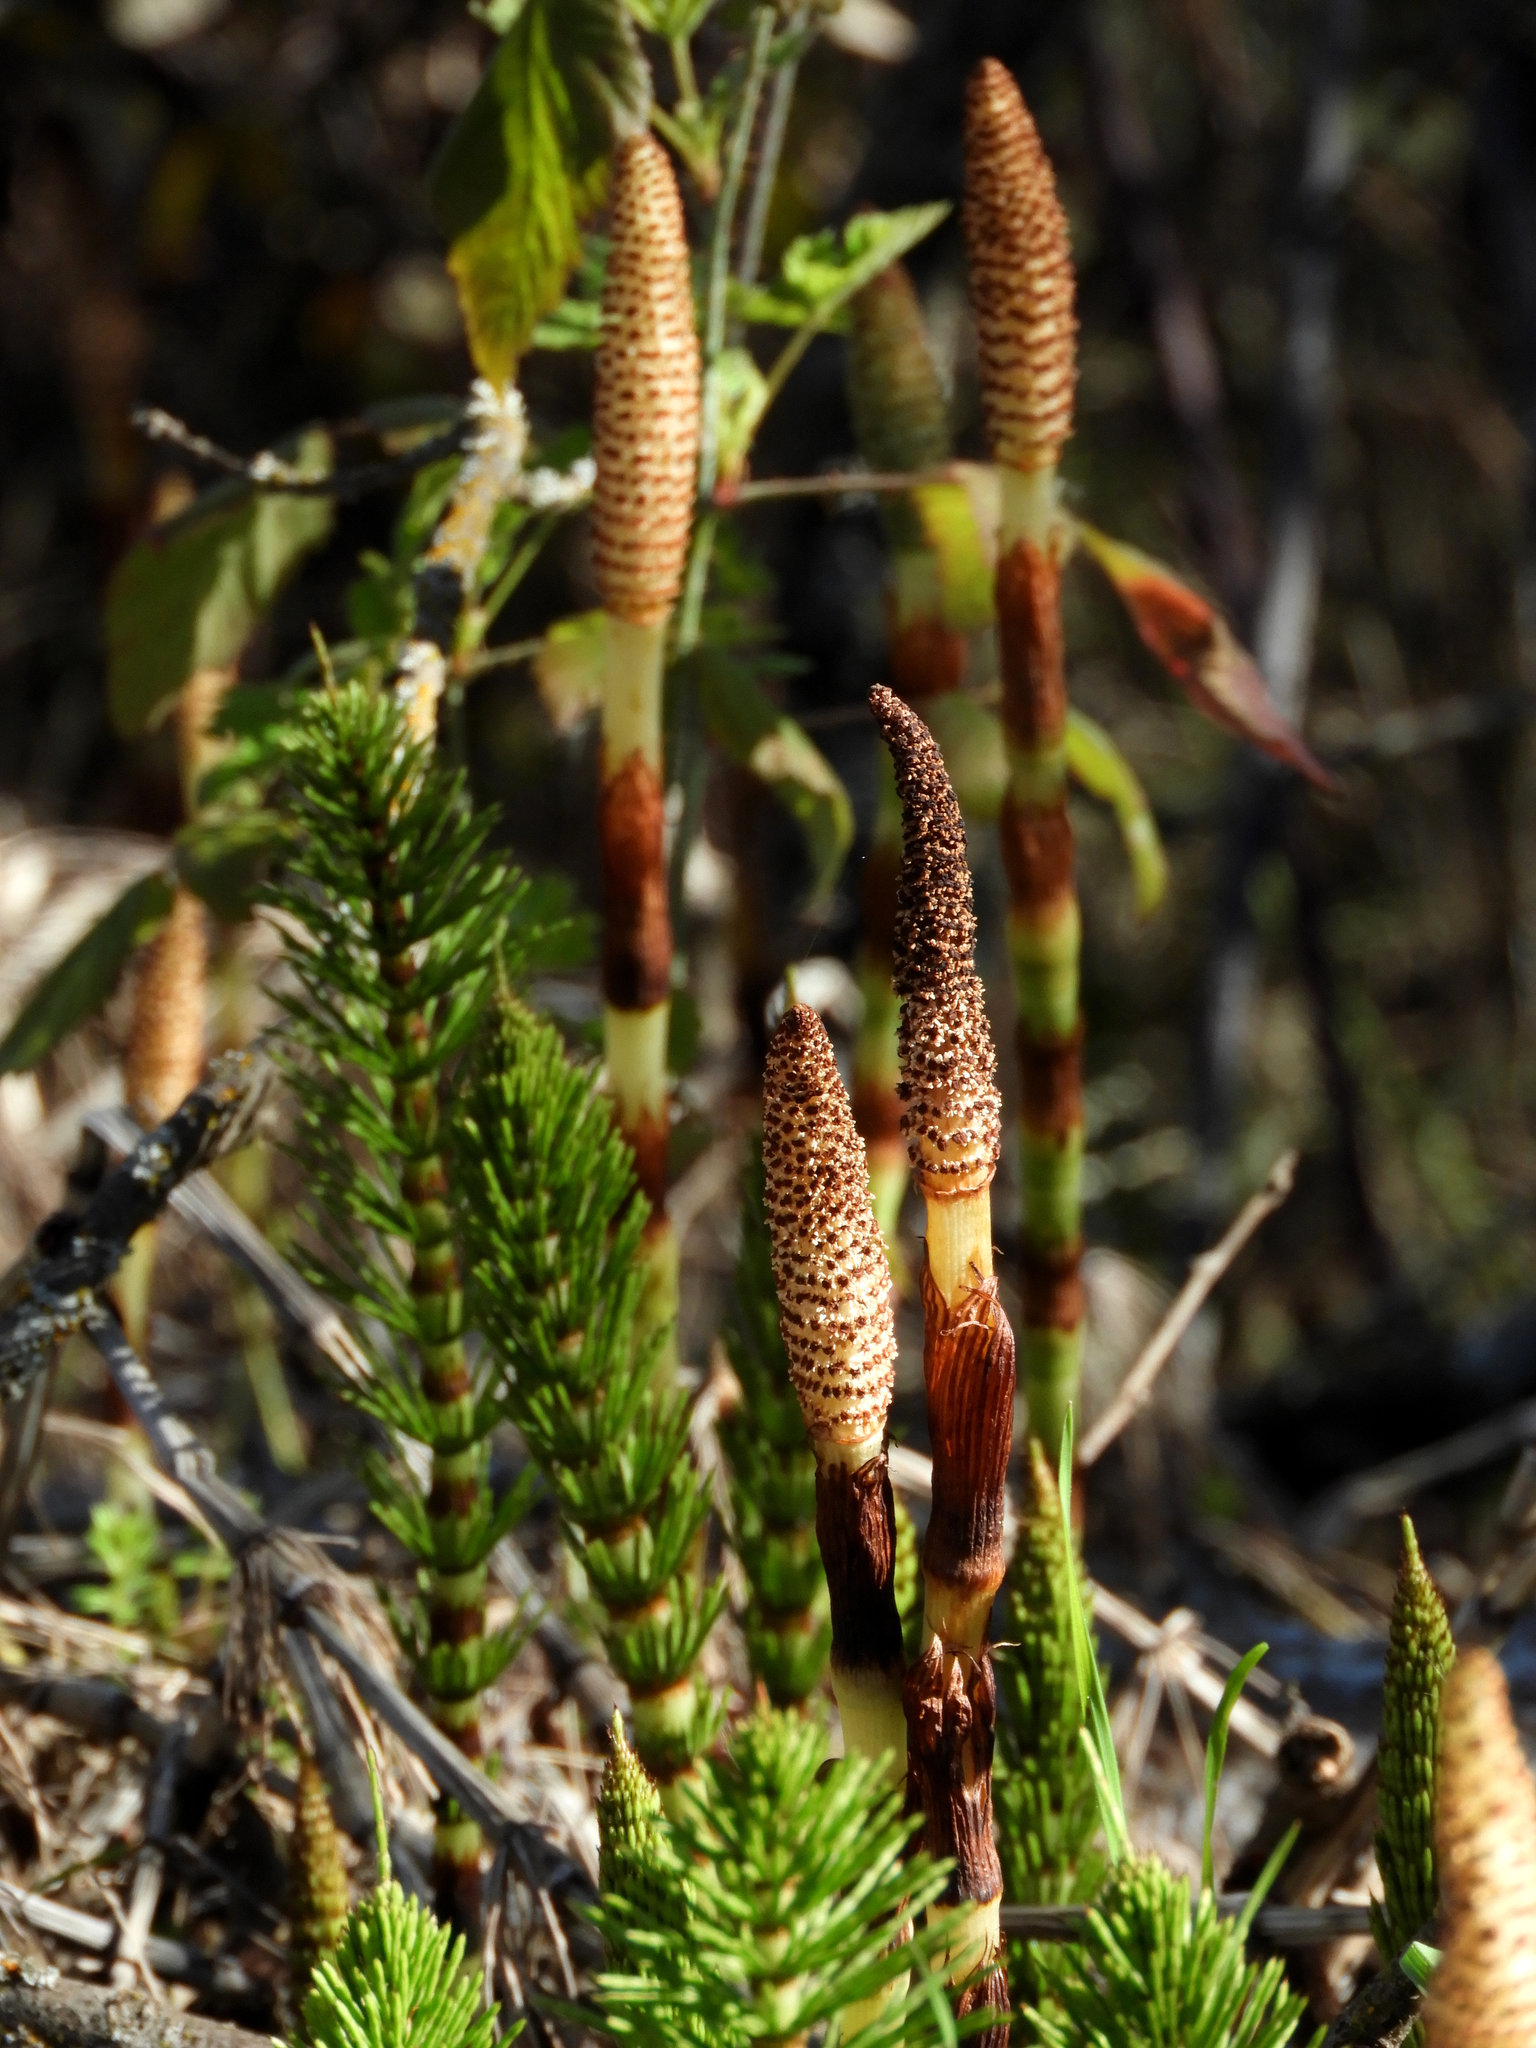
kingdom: Plantae
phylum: Tracheophyta
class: Polypodiopsida
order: Equisetales
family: Equisetaceae
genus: Equisetum
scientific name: Equisetum braunii
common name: Braun's horsetail
